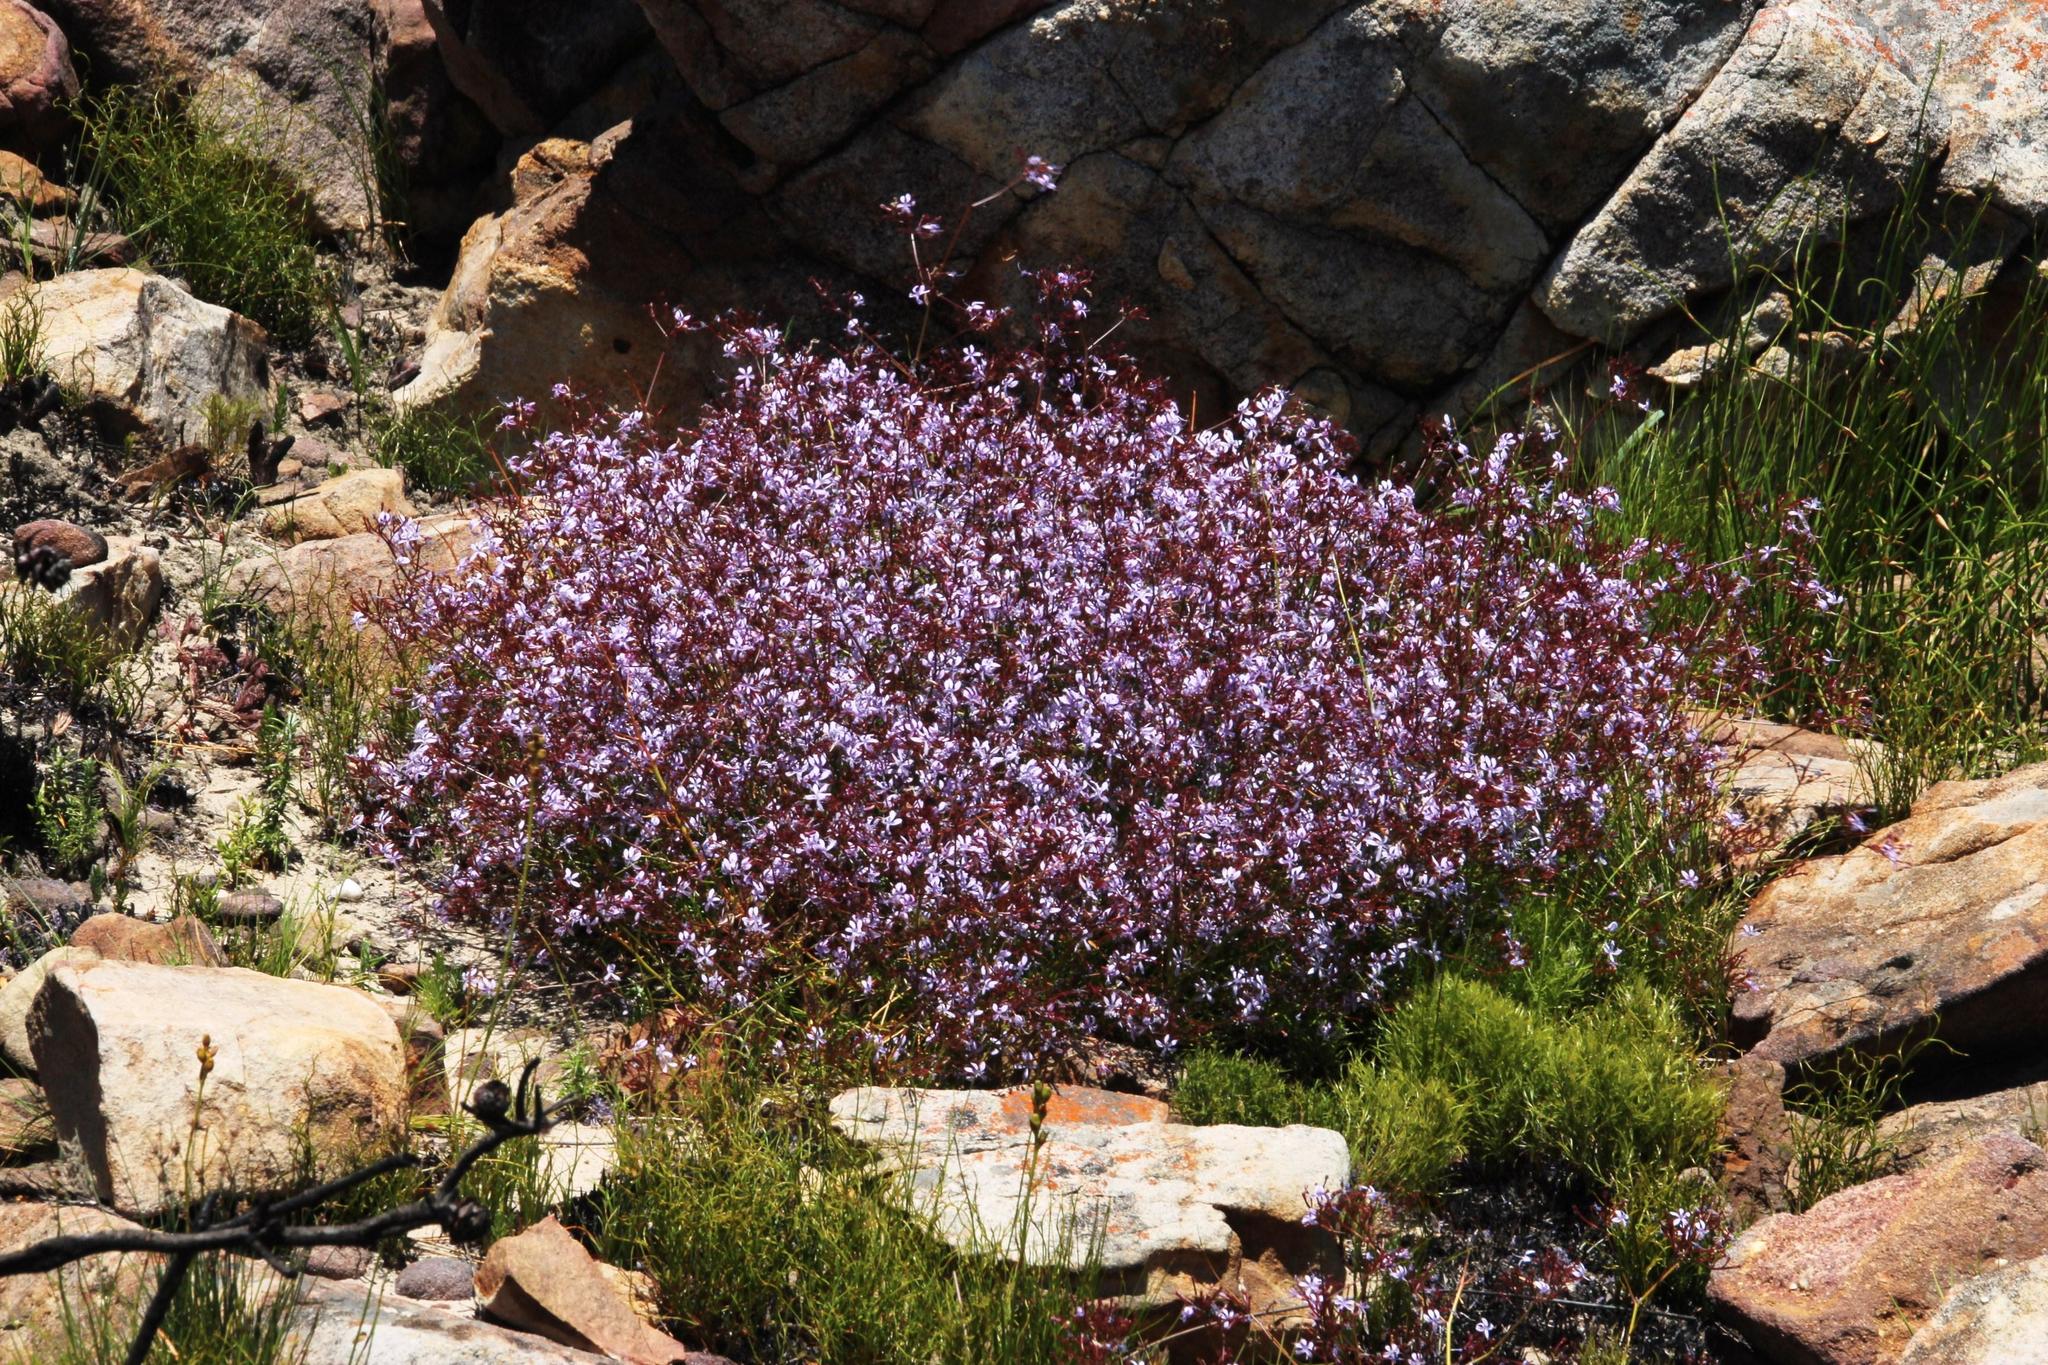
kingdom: Plantae
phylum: Tracheophyta
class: Magnoliopsida
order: Asterales
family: Campanulaceae
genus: Prismatocarpus
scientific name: Prismatocarpus diffusus
